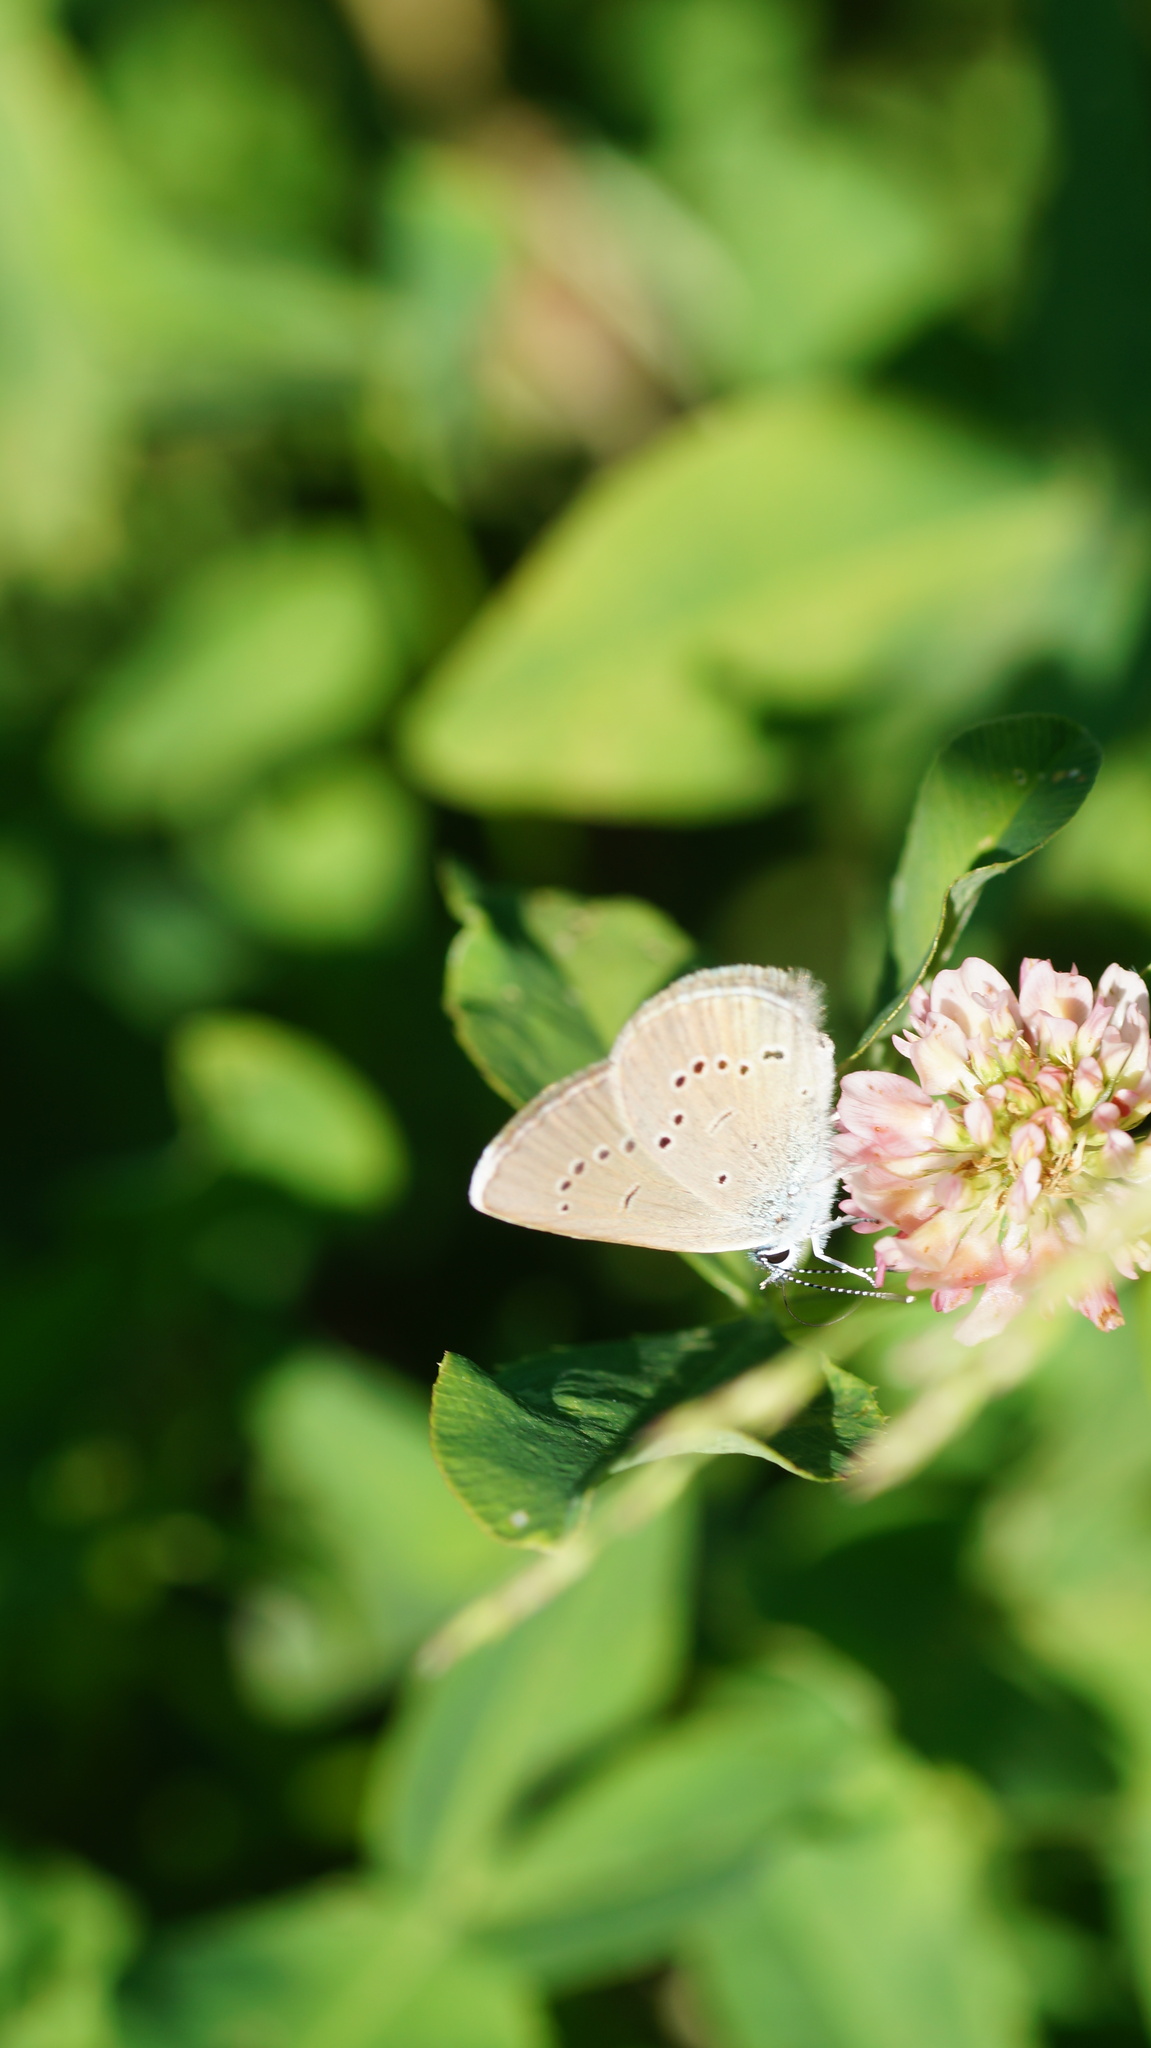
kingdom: Animalia
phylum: Arthropoda
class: Insecta
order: Lepidoptera
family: Lycaenidae
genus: Cupido
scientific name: Cupido minimus
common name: Small blue
